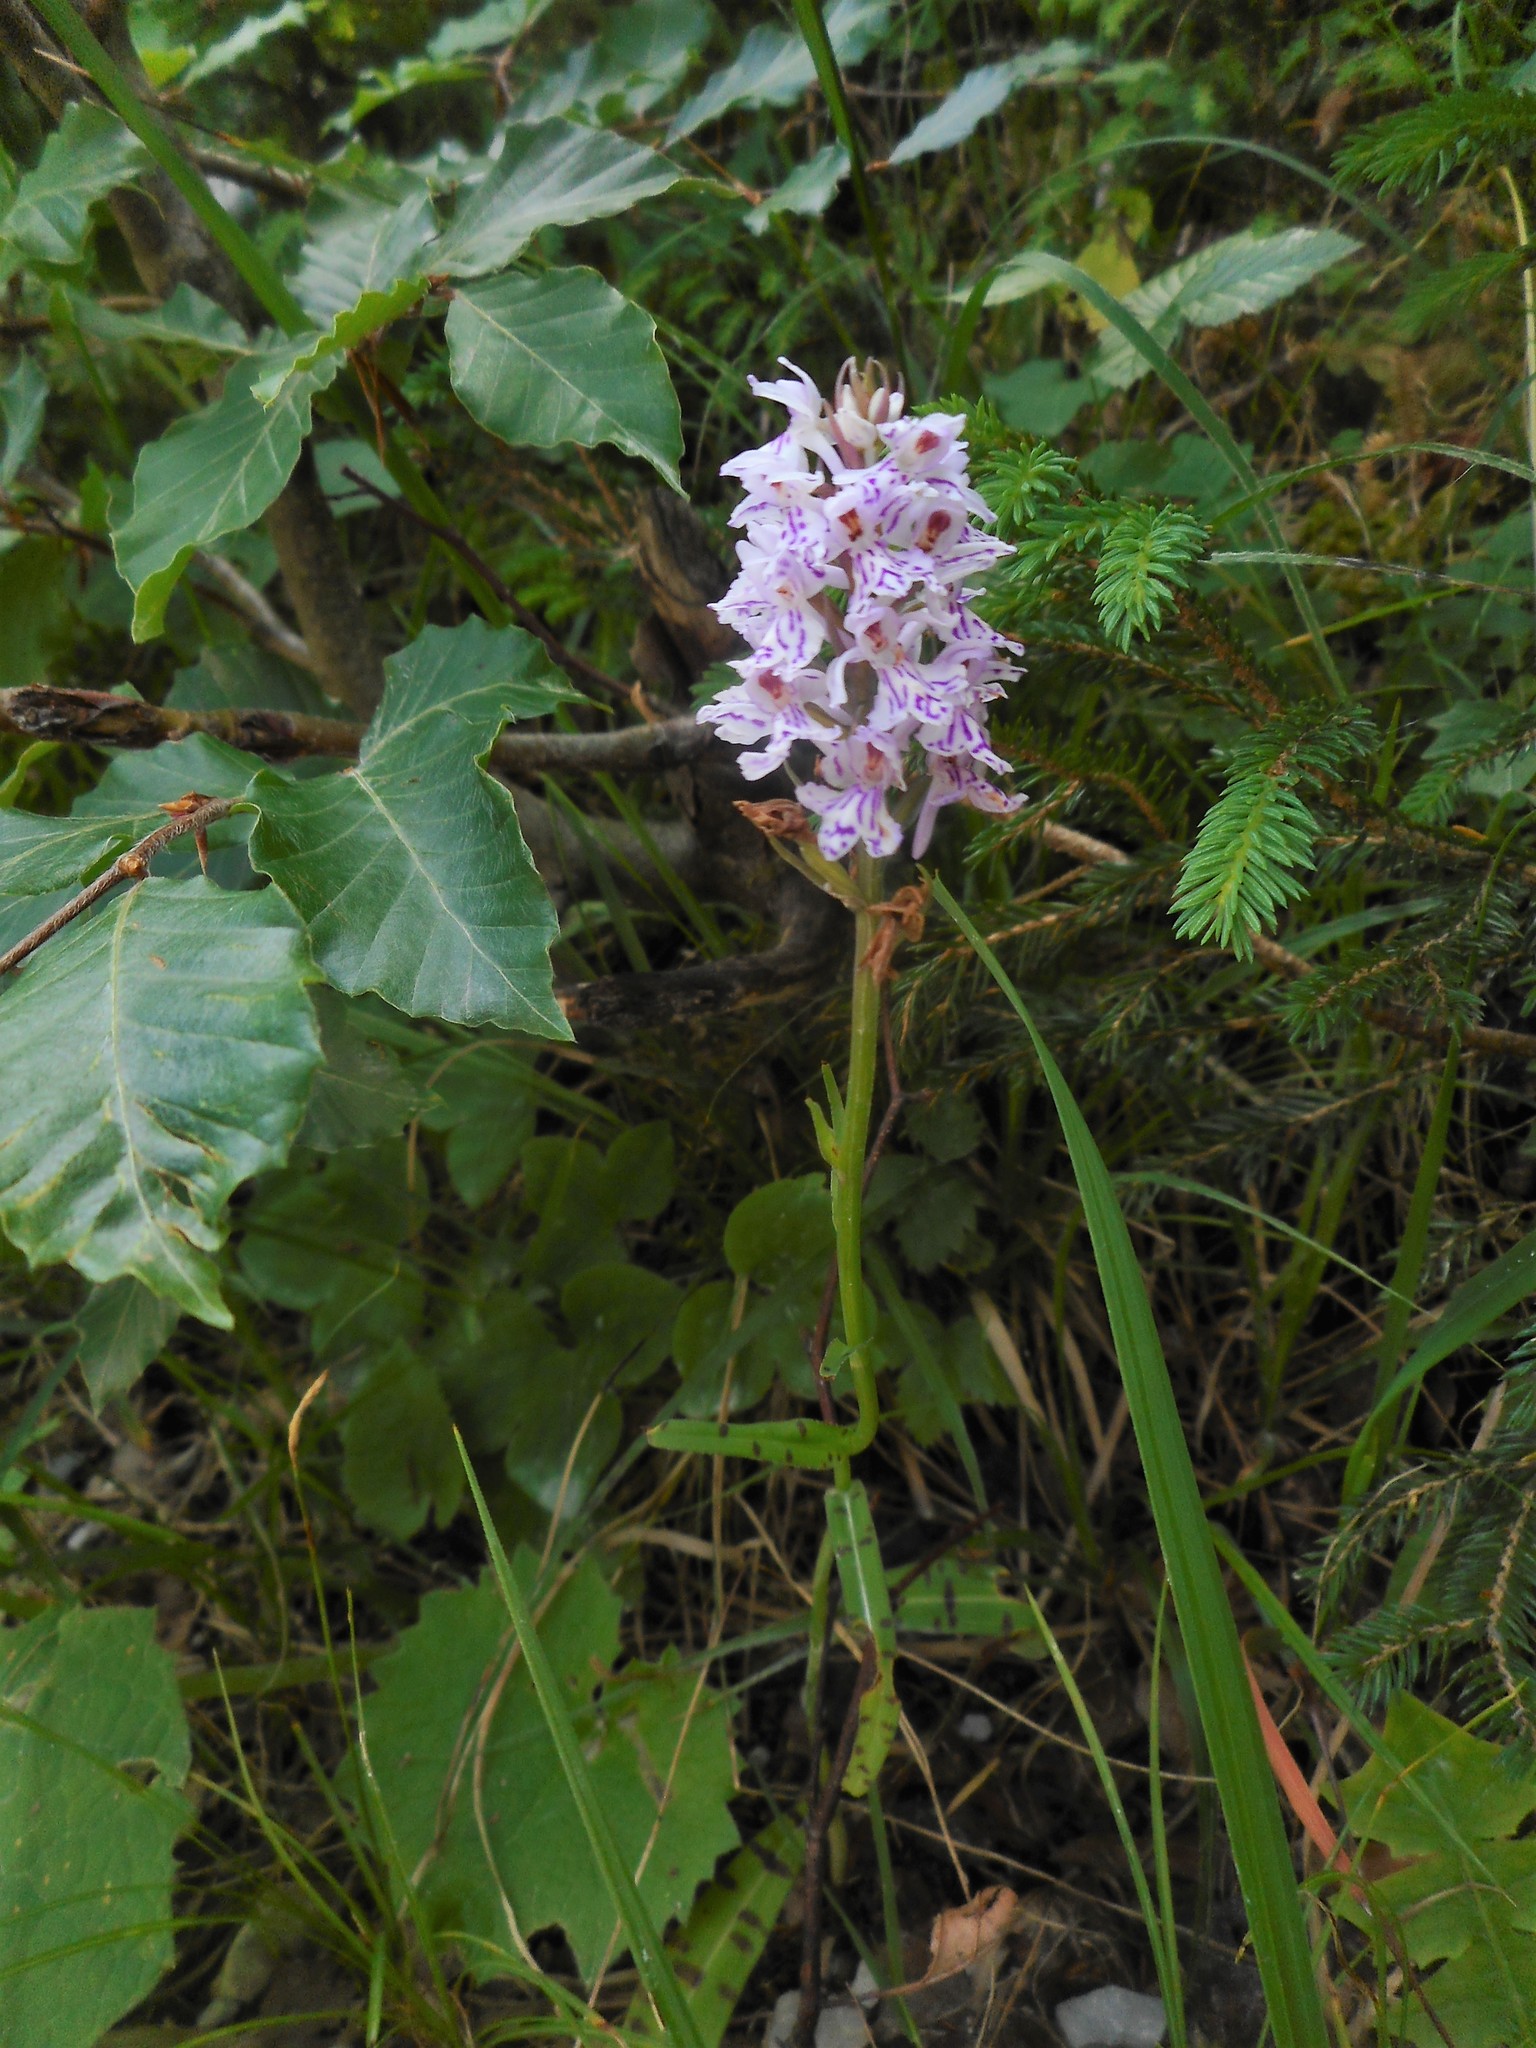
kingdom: Plantae
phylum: Tracheophyta
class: Liliopsida
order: Asparagales
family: Orchidaceae
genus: Dactylorhiza
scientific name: Dactylorhiza maculata
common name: Heath spotted-orchid
